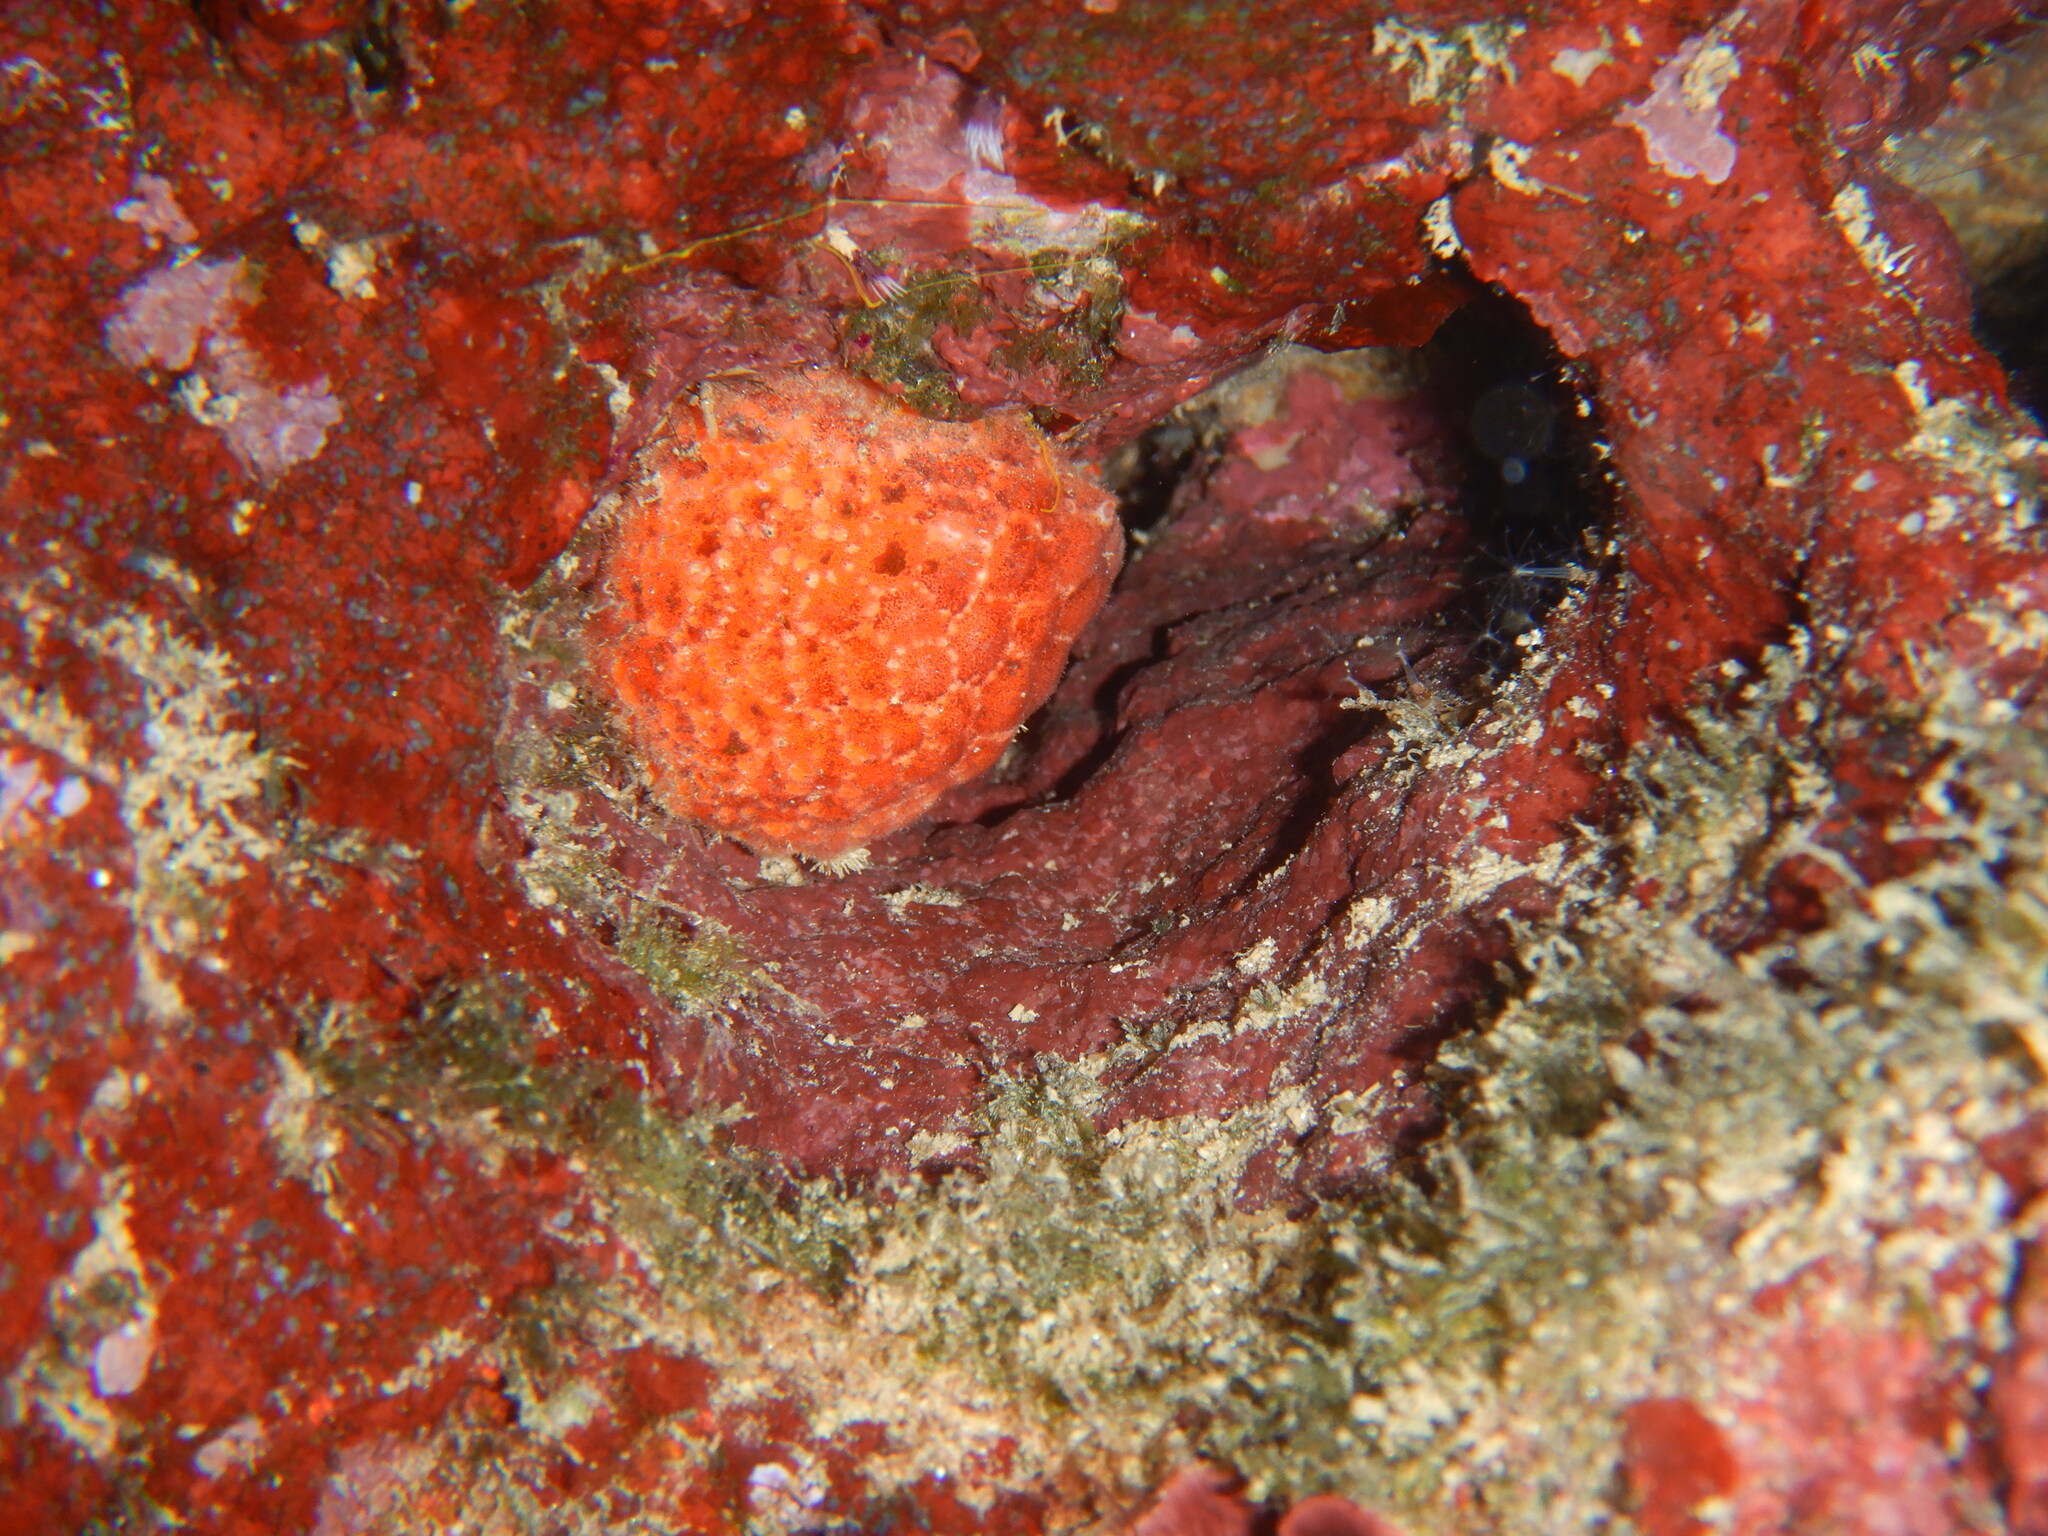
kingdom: Animalia
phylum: Porifera
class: Demospongiae
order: Tethyida
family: Tethyidae
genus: Tethya
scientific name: Tethya aurantium
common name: Golf ball sponge
